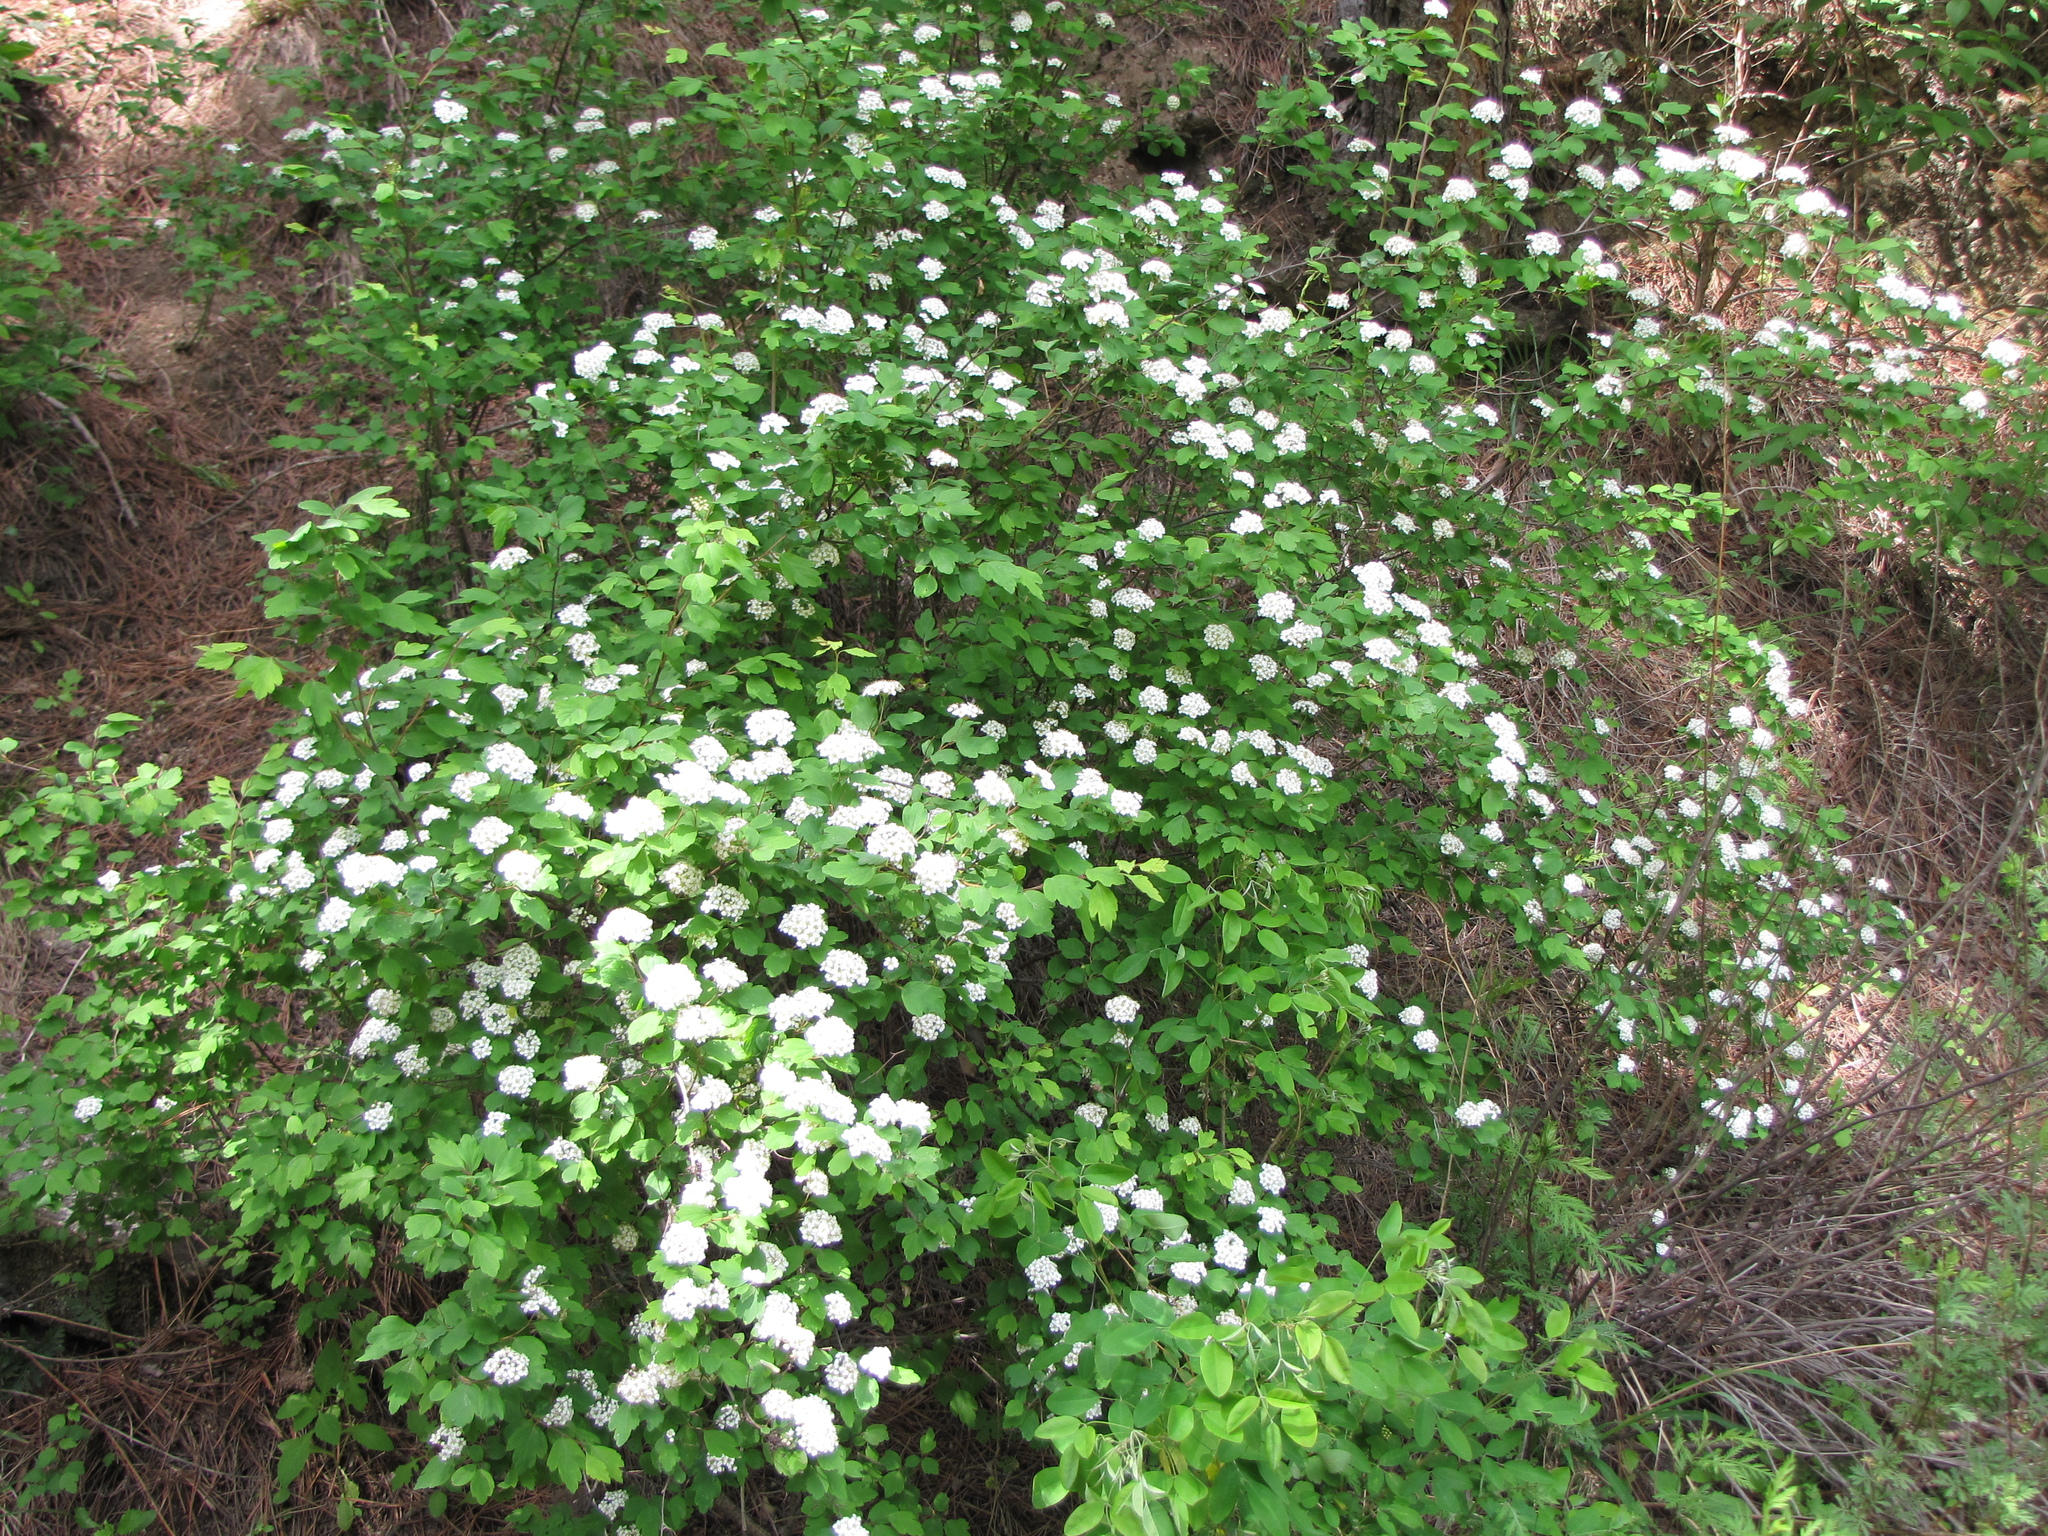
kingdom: Plantae
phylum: Tracheophyta
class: Magnoliopsida
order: Rosales
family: Rosaceae
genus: Spiraea
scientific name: Spiraea ouensanensis
